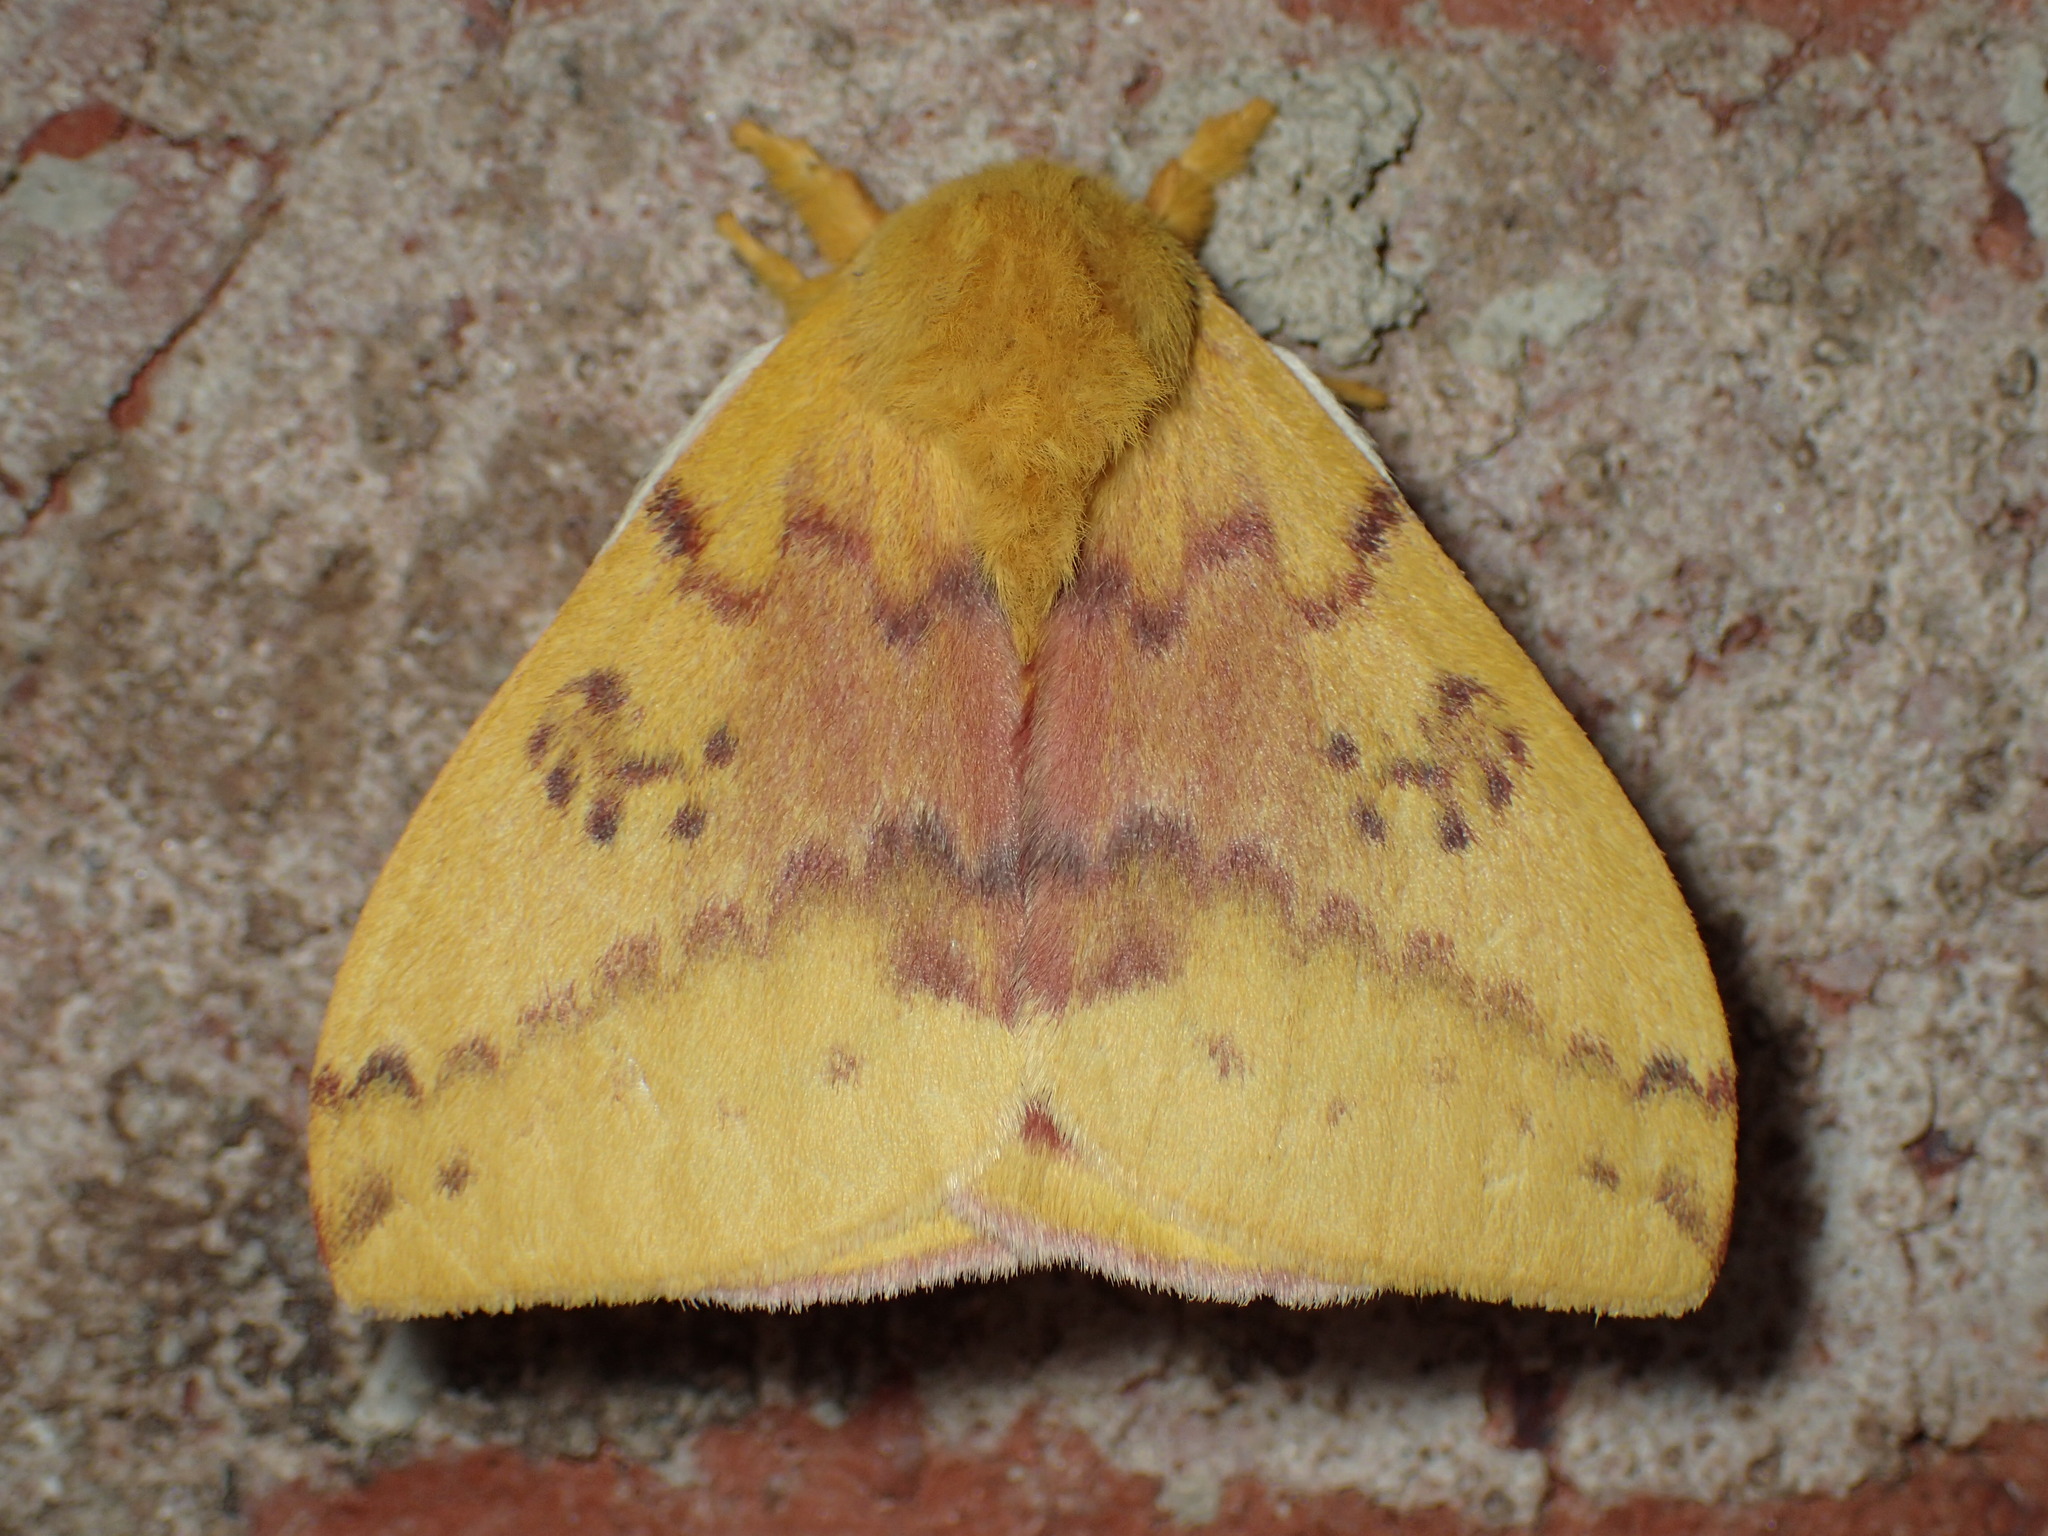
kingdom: Animalia
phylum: Arthropoda
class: Insecta
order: Lepidoptera
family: Saturniidae
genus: Automeris
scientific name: Automeris io
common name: Io moth
